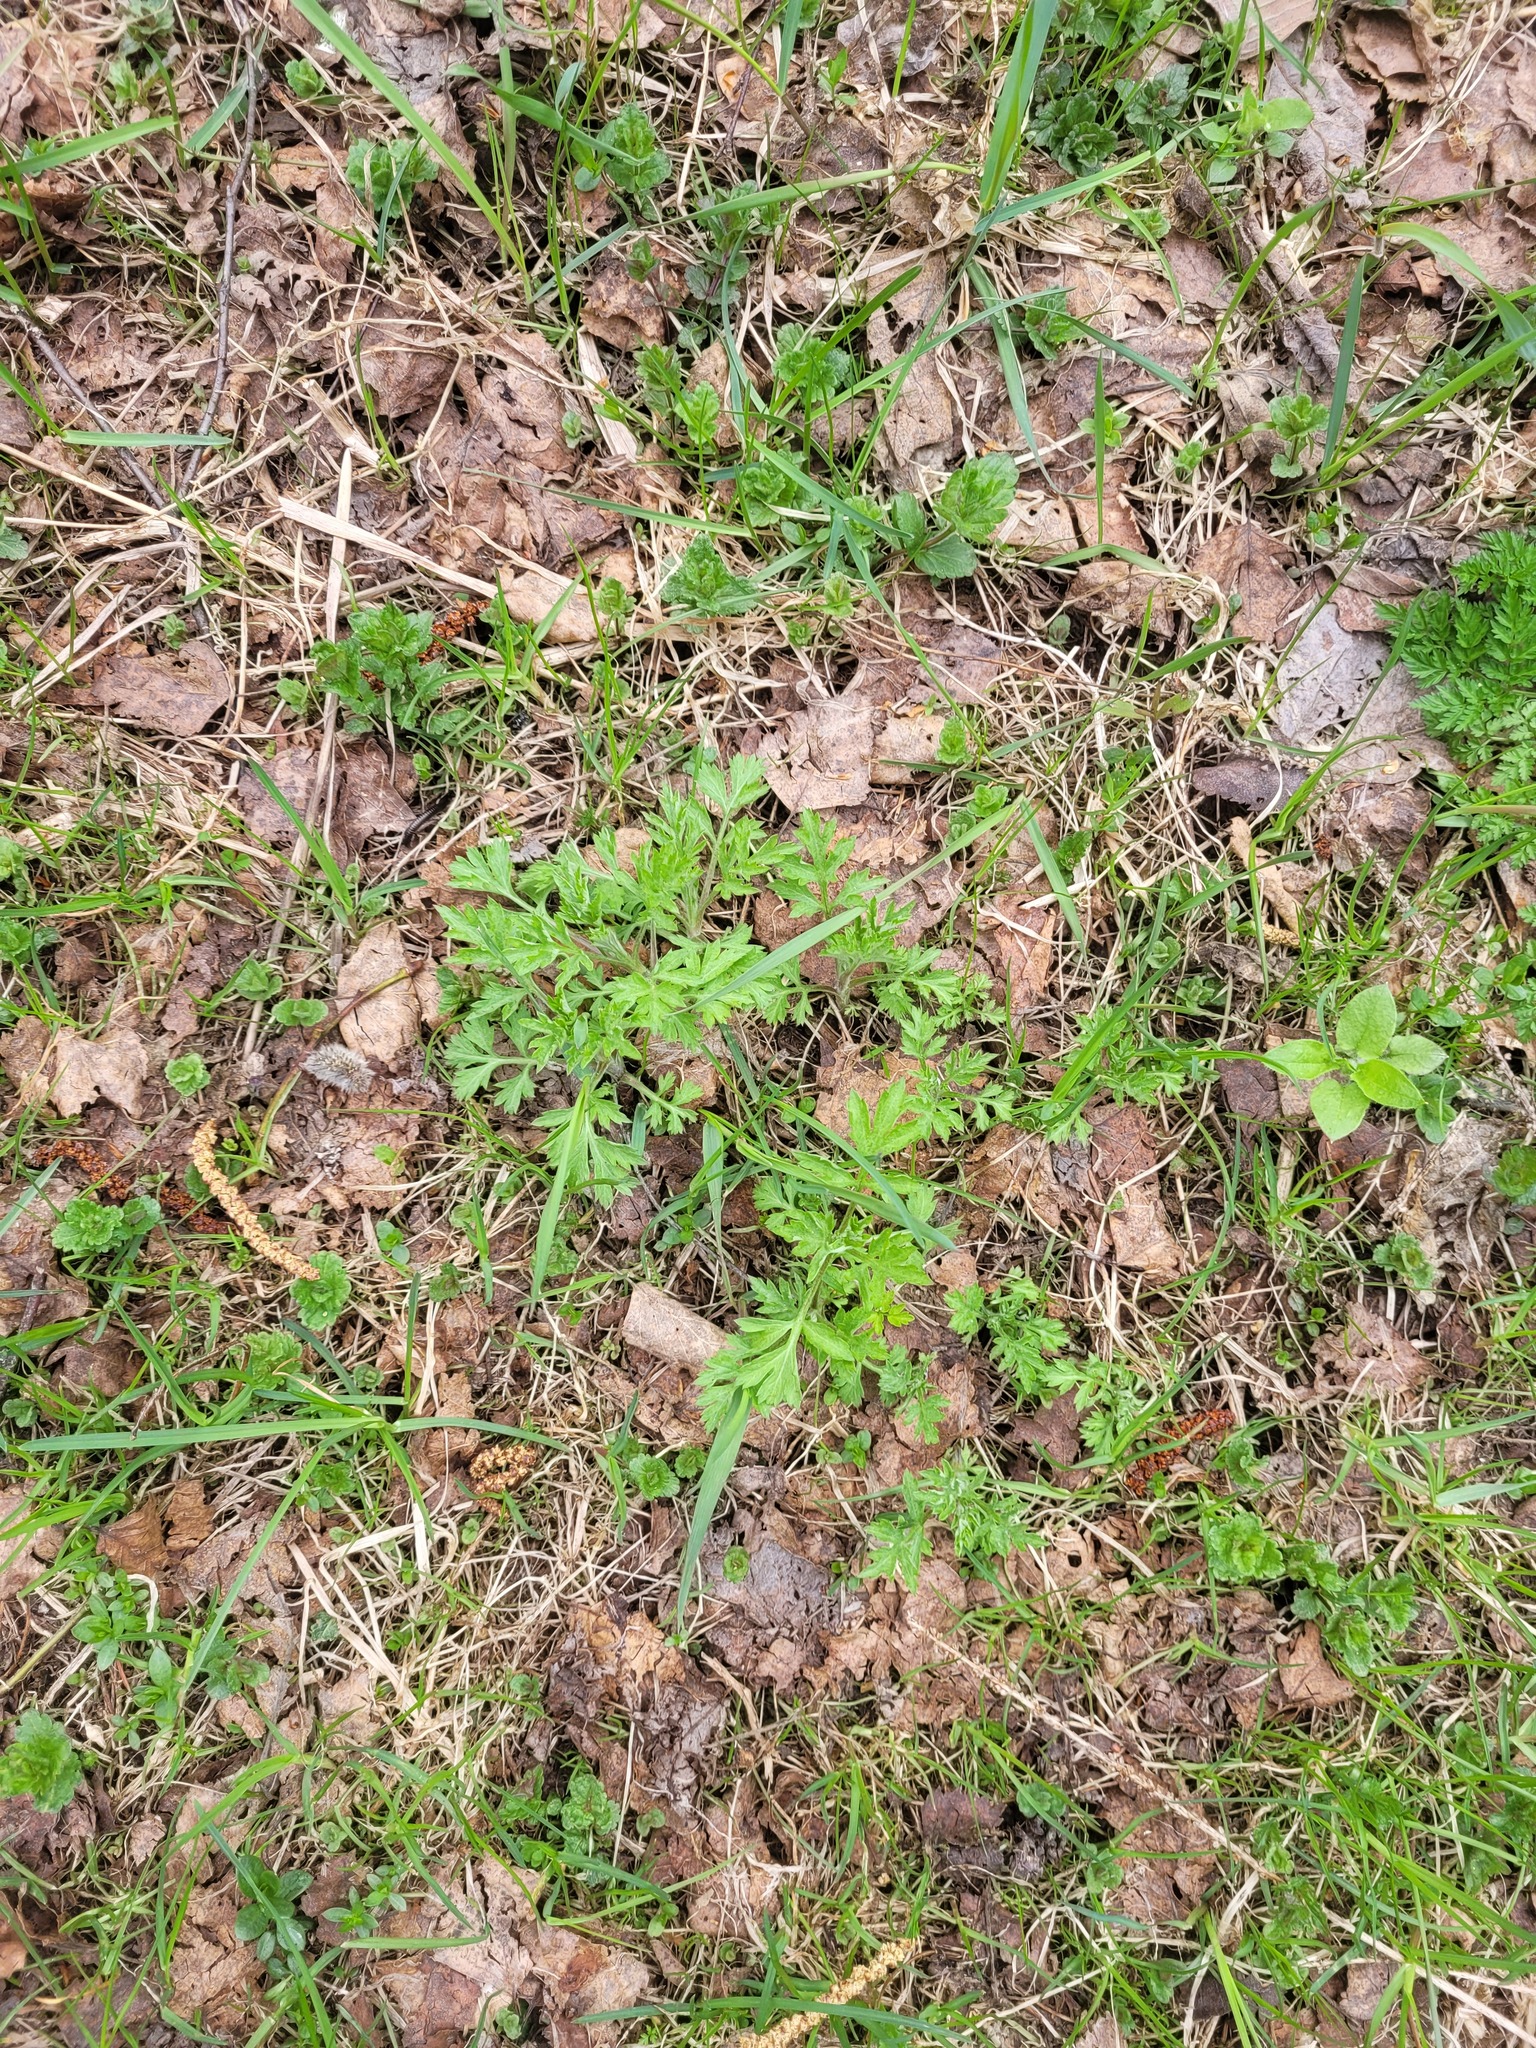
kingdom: Plantae
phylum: Tracheophyta
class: Magnoliopsida
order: Asterales
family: Asteraceae
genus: Artemisia
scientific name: Artemisia vulgaris
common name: Mugwort
